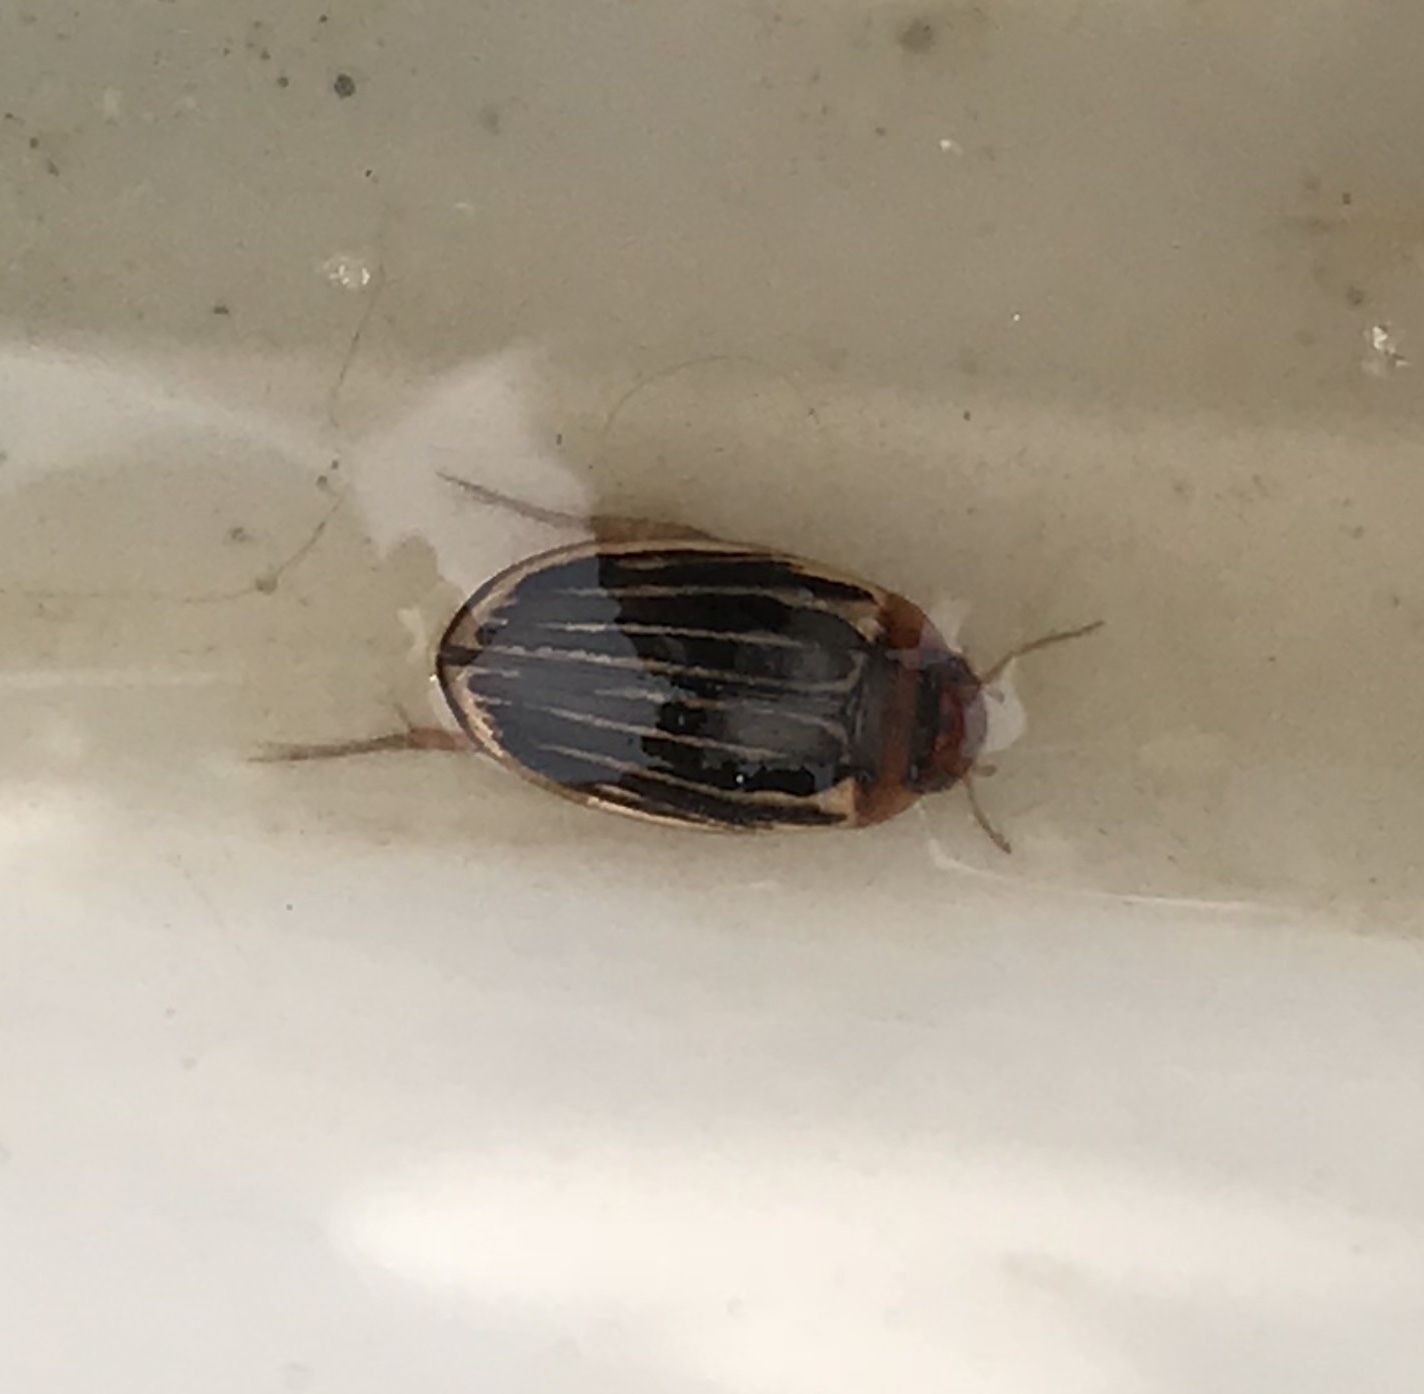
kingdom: Animalia
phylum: Arthropoda
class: Insecta
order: Coleoptera
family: Dytiscidae
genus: Agabus
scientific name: Agabus disintegratus
